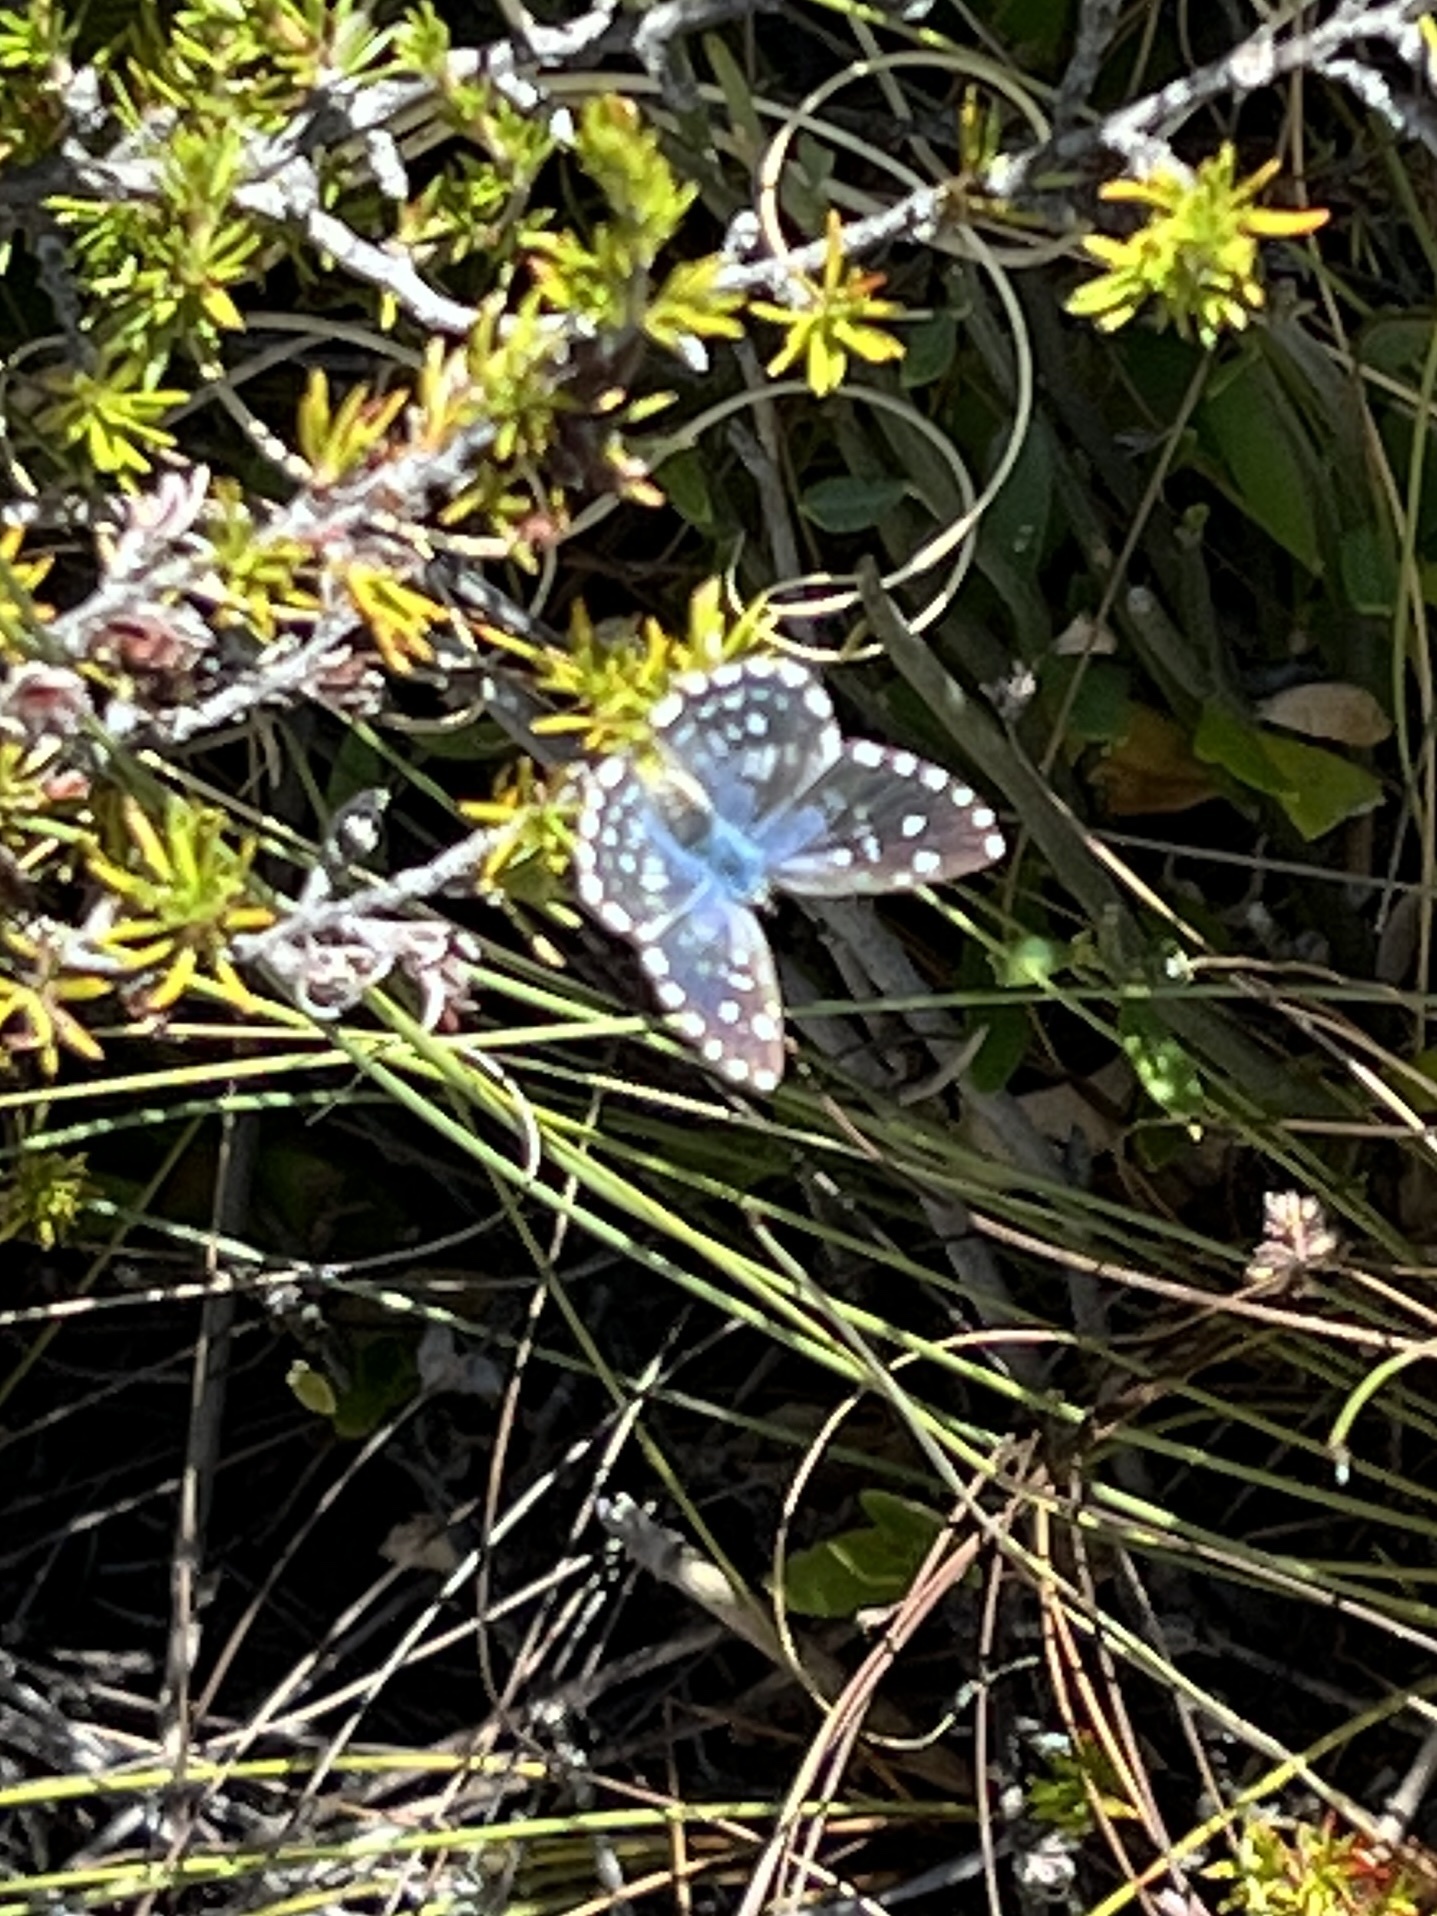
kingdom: Animalia
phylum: Arthropoda
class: Insecta
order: Lepidoptera
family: Lycaenidae
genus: Tarucus
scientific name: Tarucus thespis
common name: Vivid dotted blue
